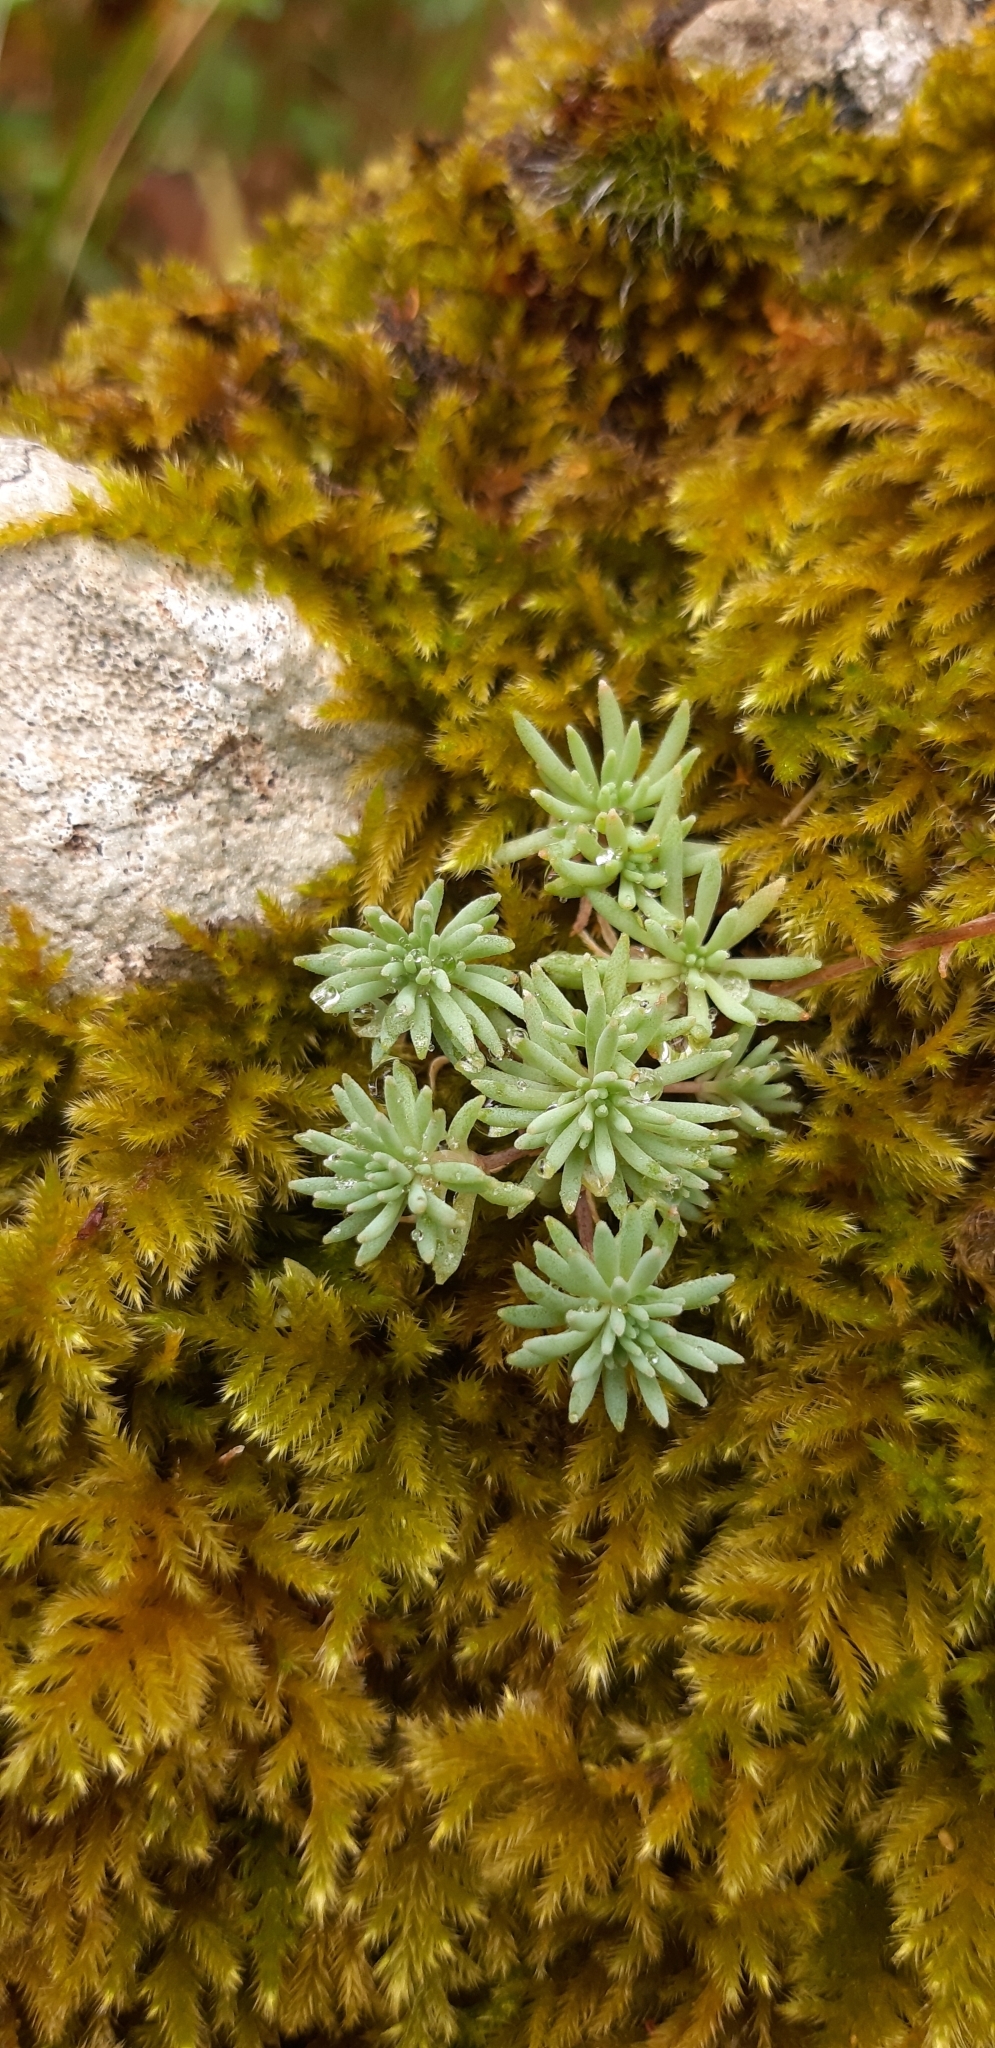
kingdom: Plantae
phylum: Tracheophyta
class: Magnoliopsida
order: Saxifragales
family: Crassulaceae
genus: Sedum
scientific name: Sedum hispanicum
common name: Spanish stonecrop
